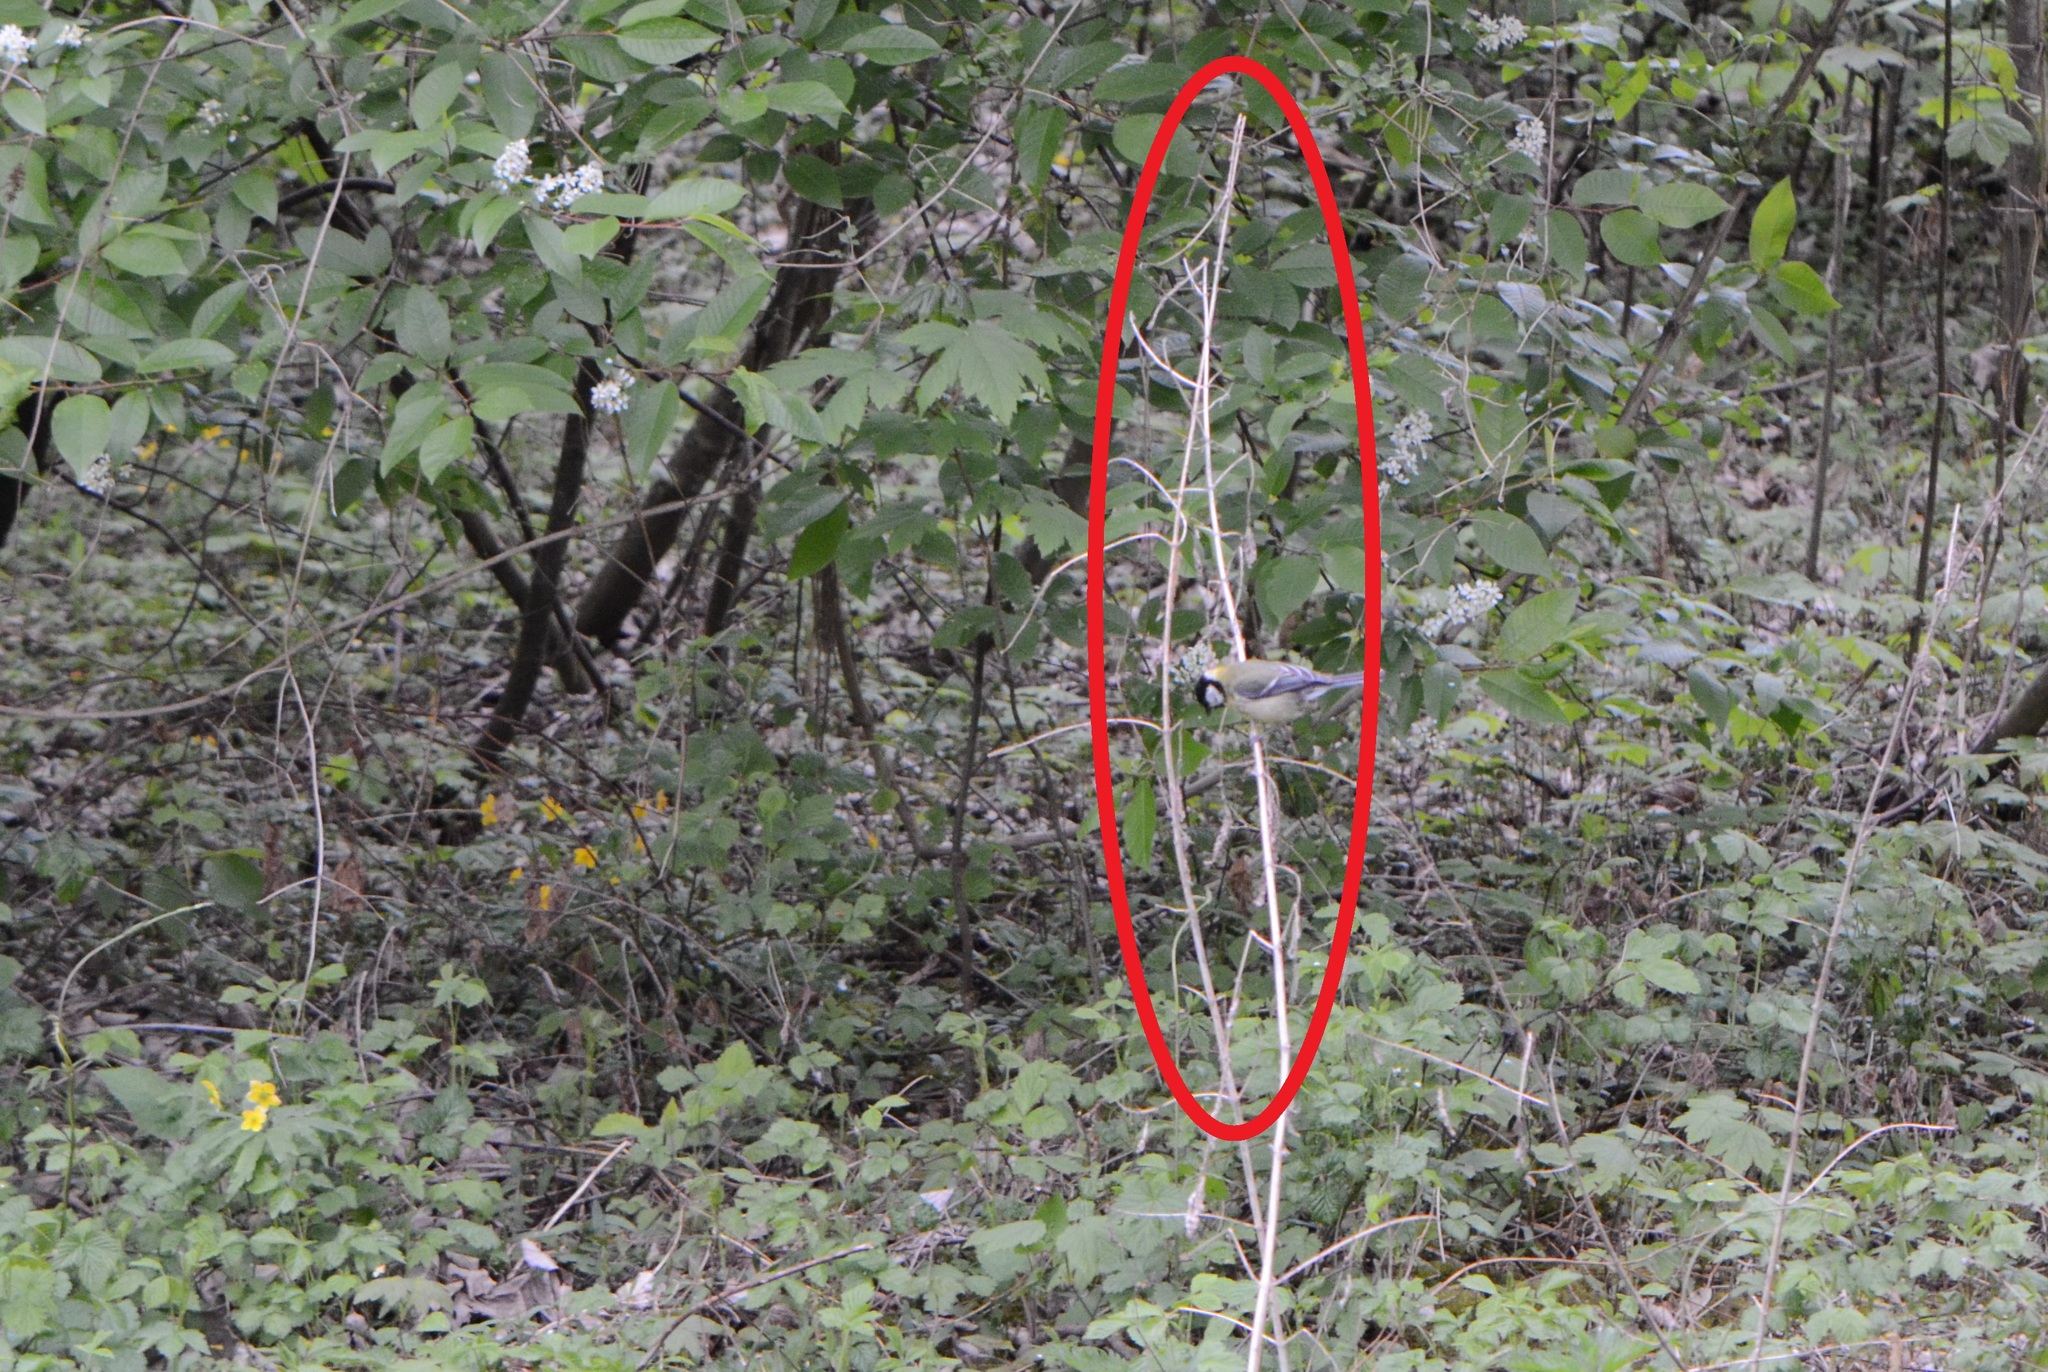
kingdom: Plantae
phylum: Tracheophyta
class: Magnoliopsida
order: Ranunculales
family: Ranunculaceae
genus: Clematis
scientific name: Clematis vitalba
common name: Evergreen clematis
